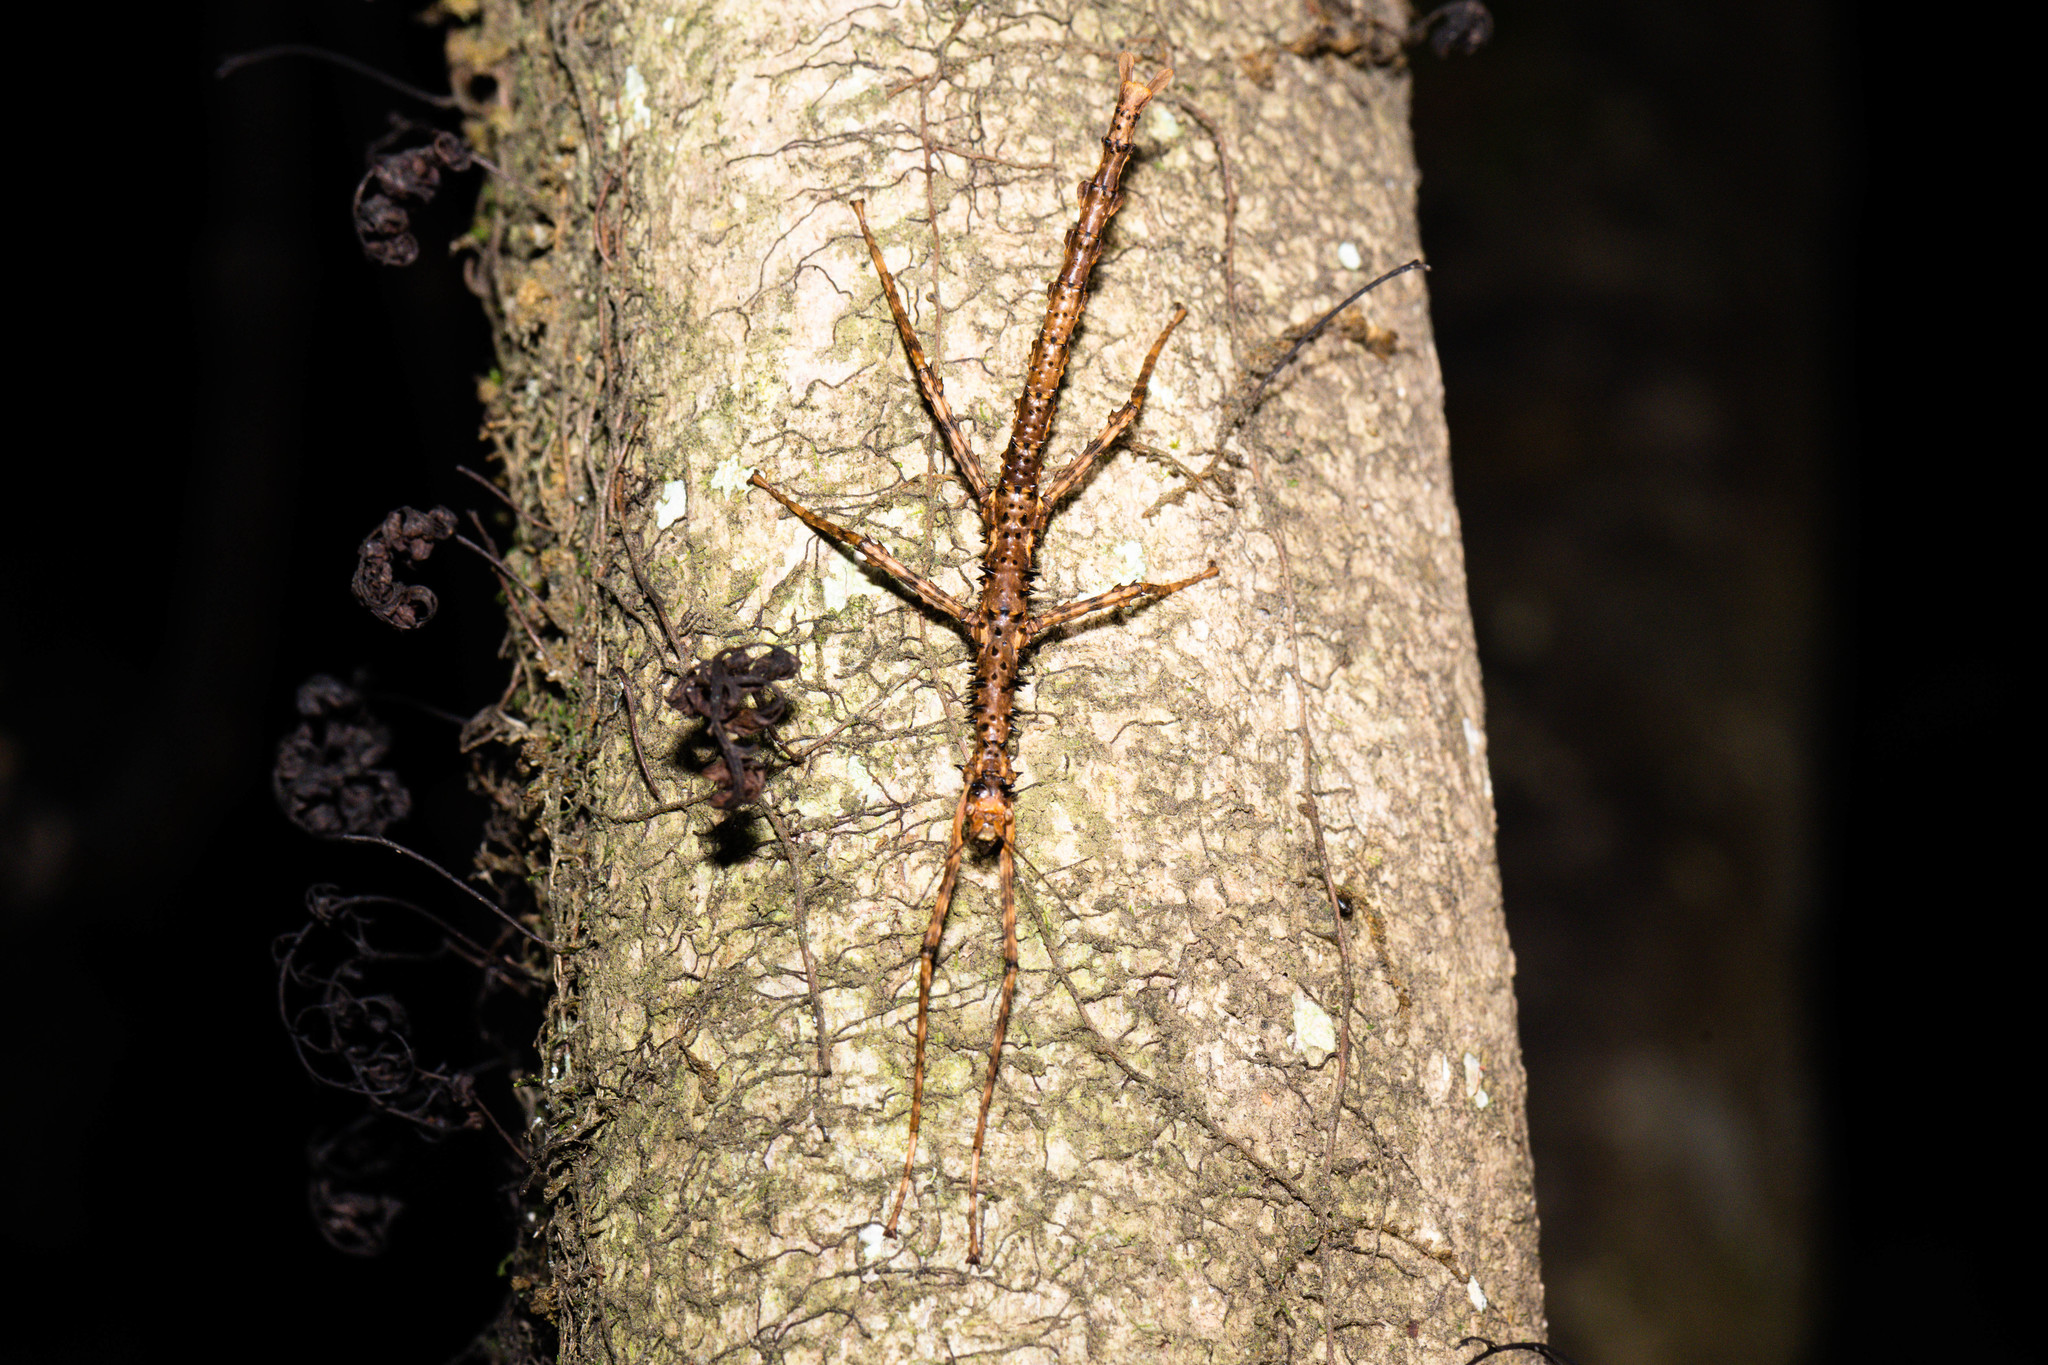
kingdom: Animalia
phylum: Arthropoda
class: Insecta
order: Phasmida
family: Phasmatidae
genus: Acanthoxyla
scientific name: Acanthoxyla prasina
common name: Black-spined stick insect
